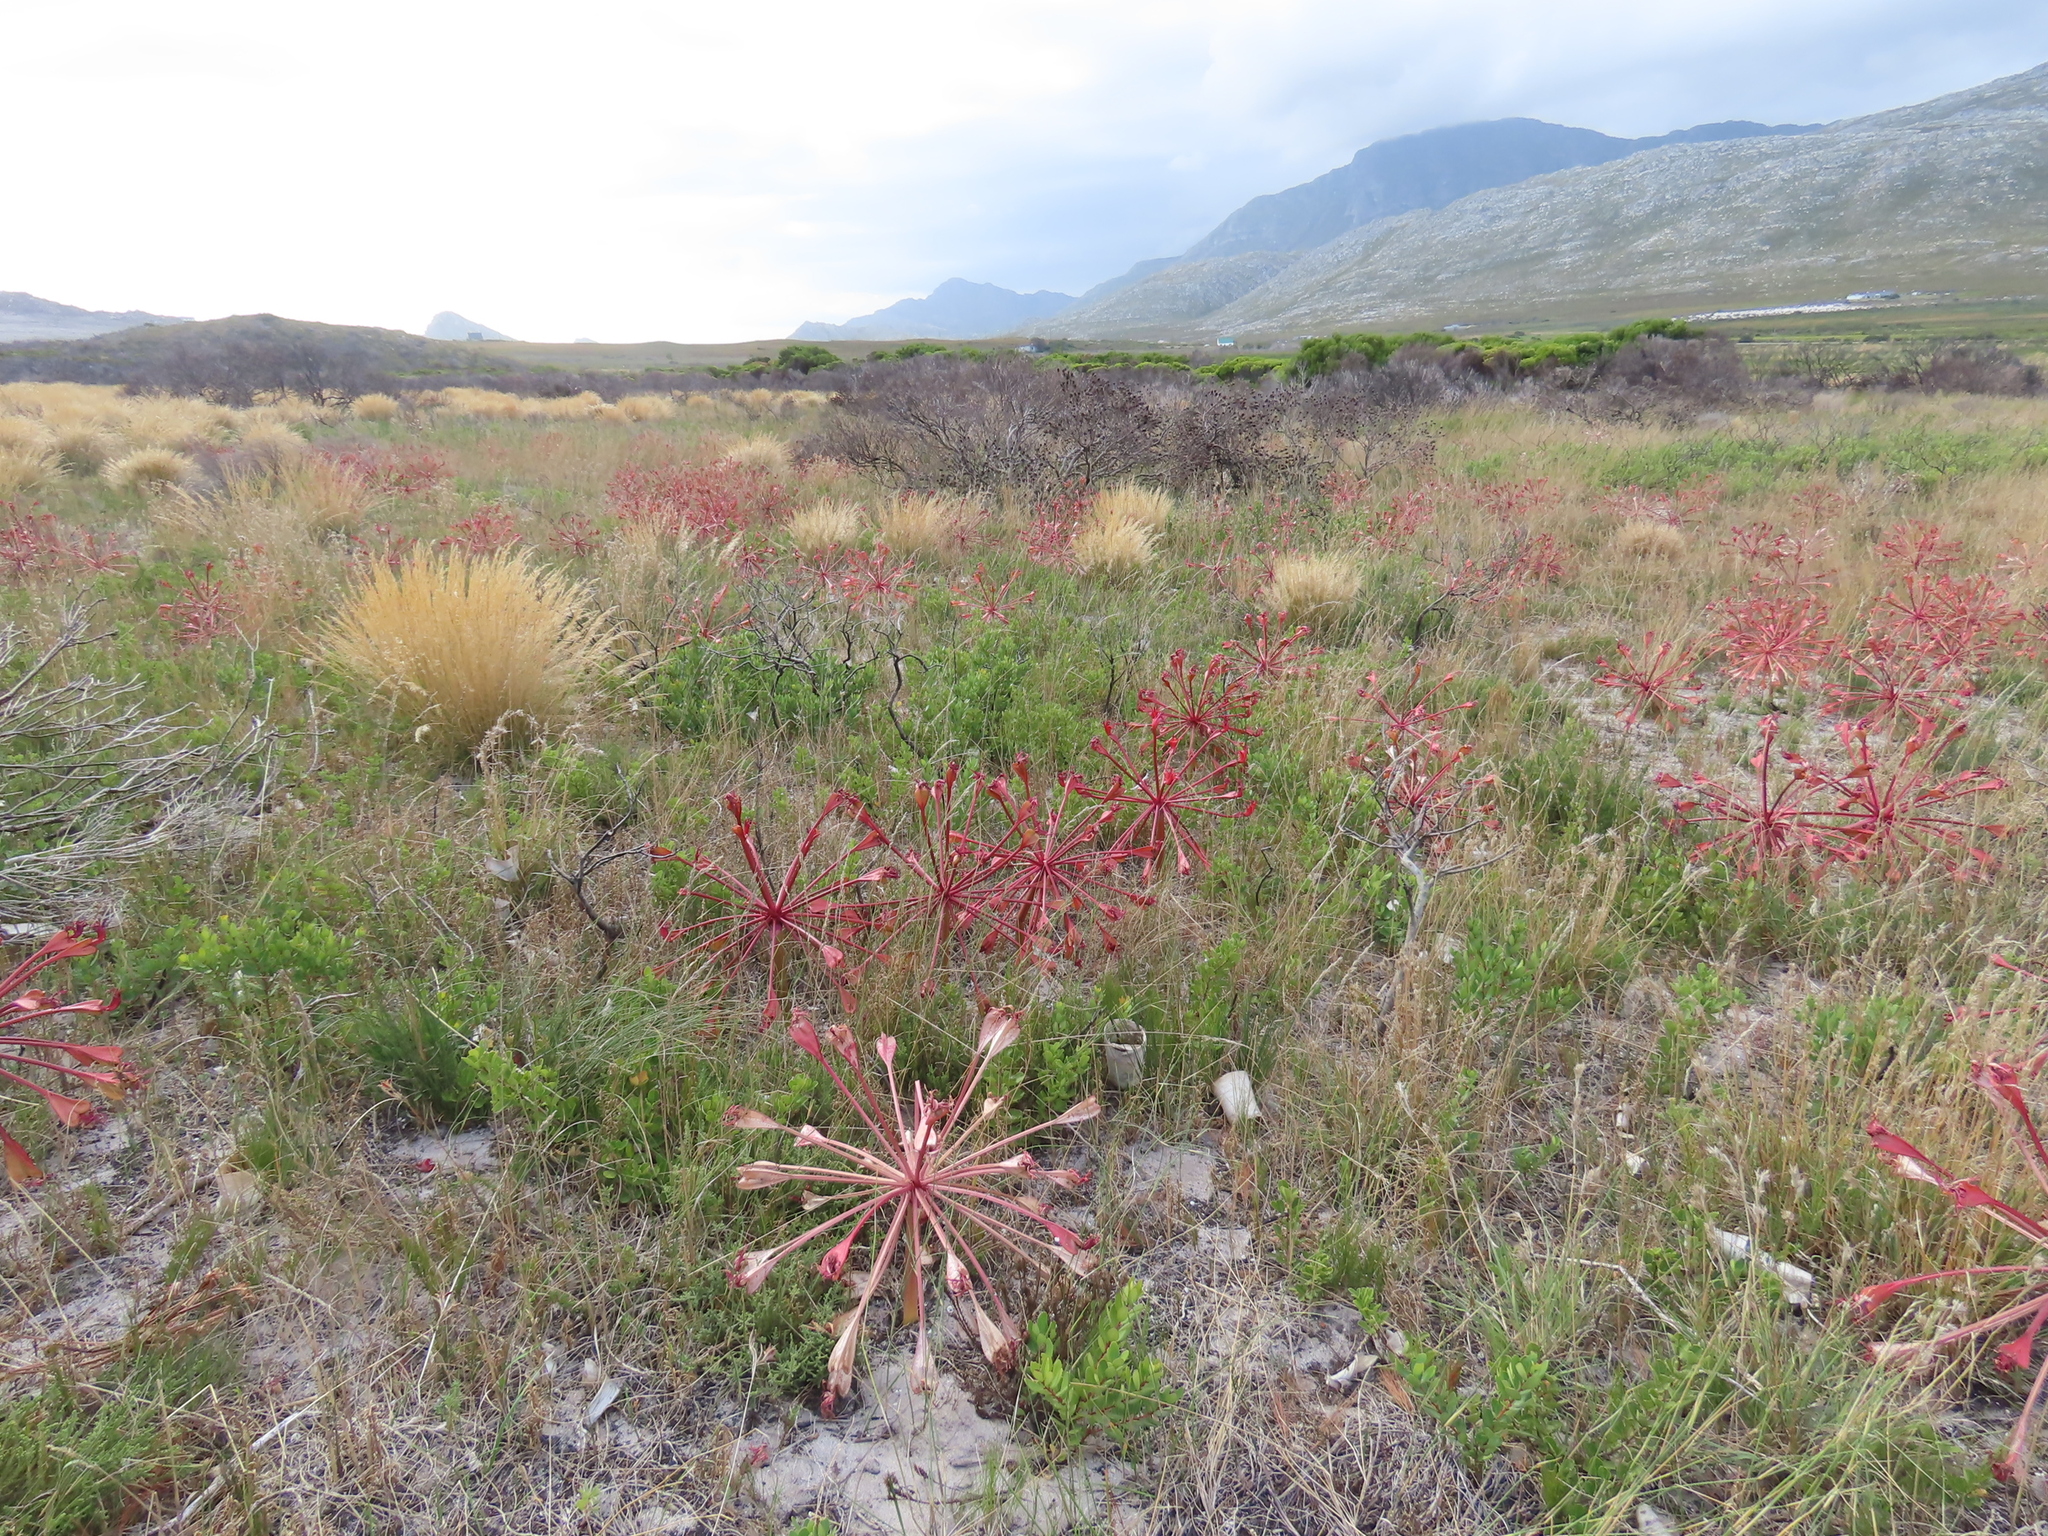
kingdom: Plantae
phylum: Tracheophyta
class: Liliopsida
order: Asparagales
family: Amaryllidaceae
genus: Brunsvigia
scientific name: Brunsvigia orientalis
